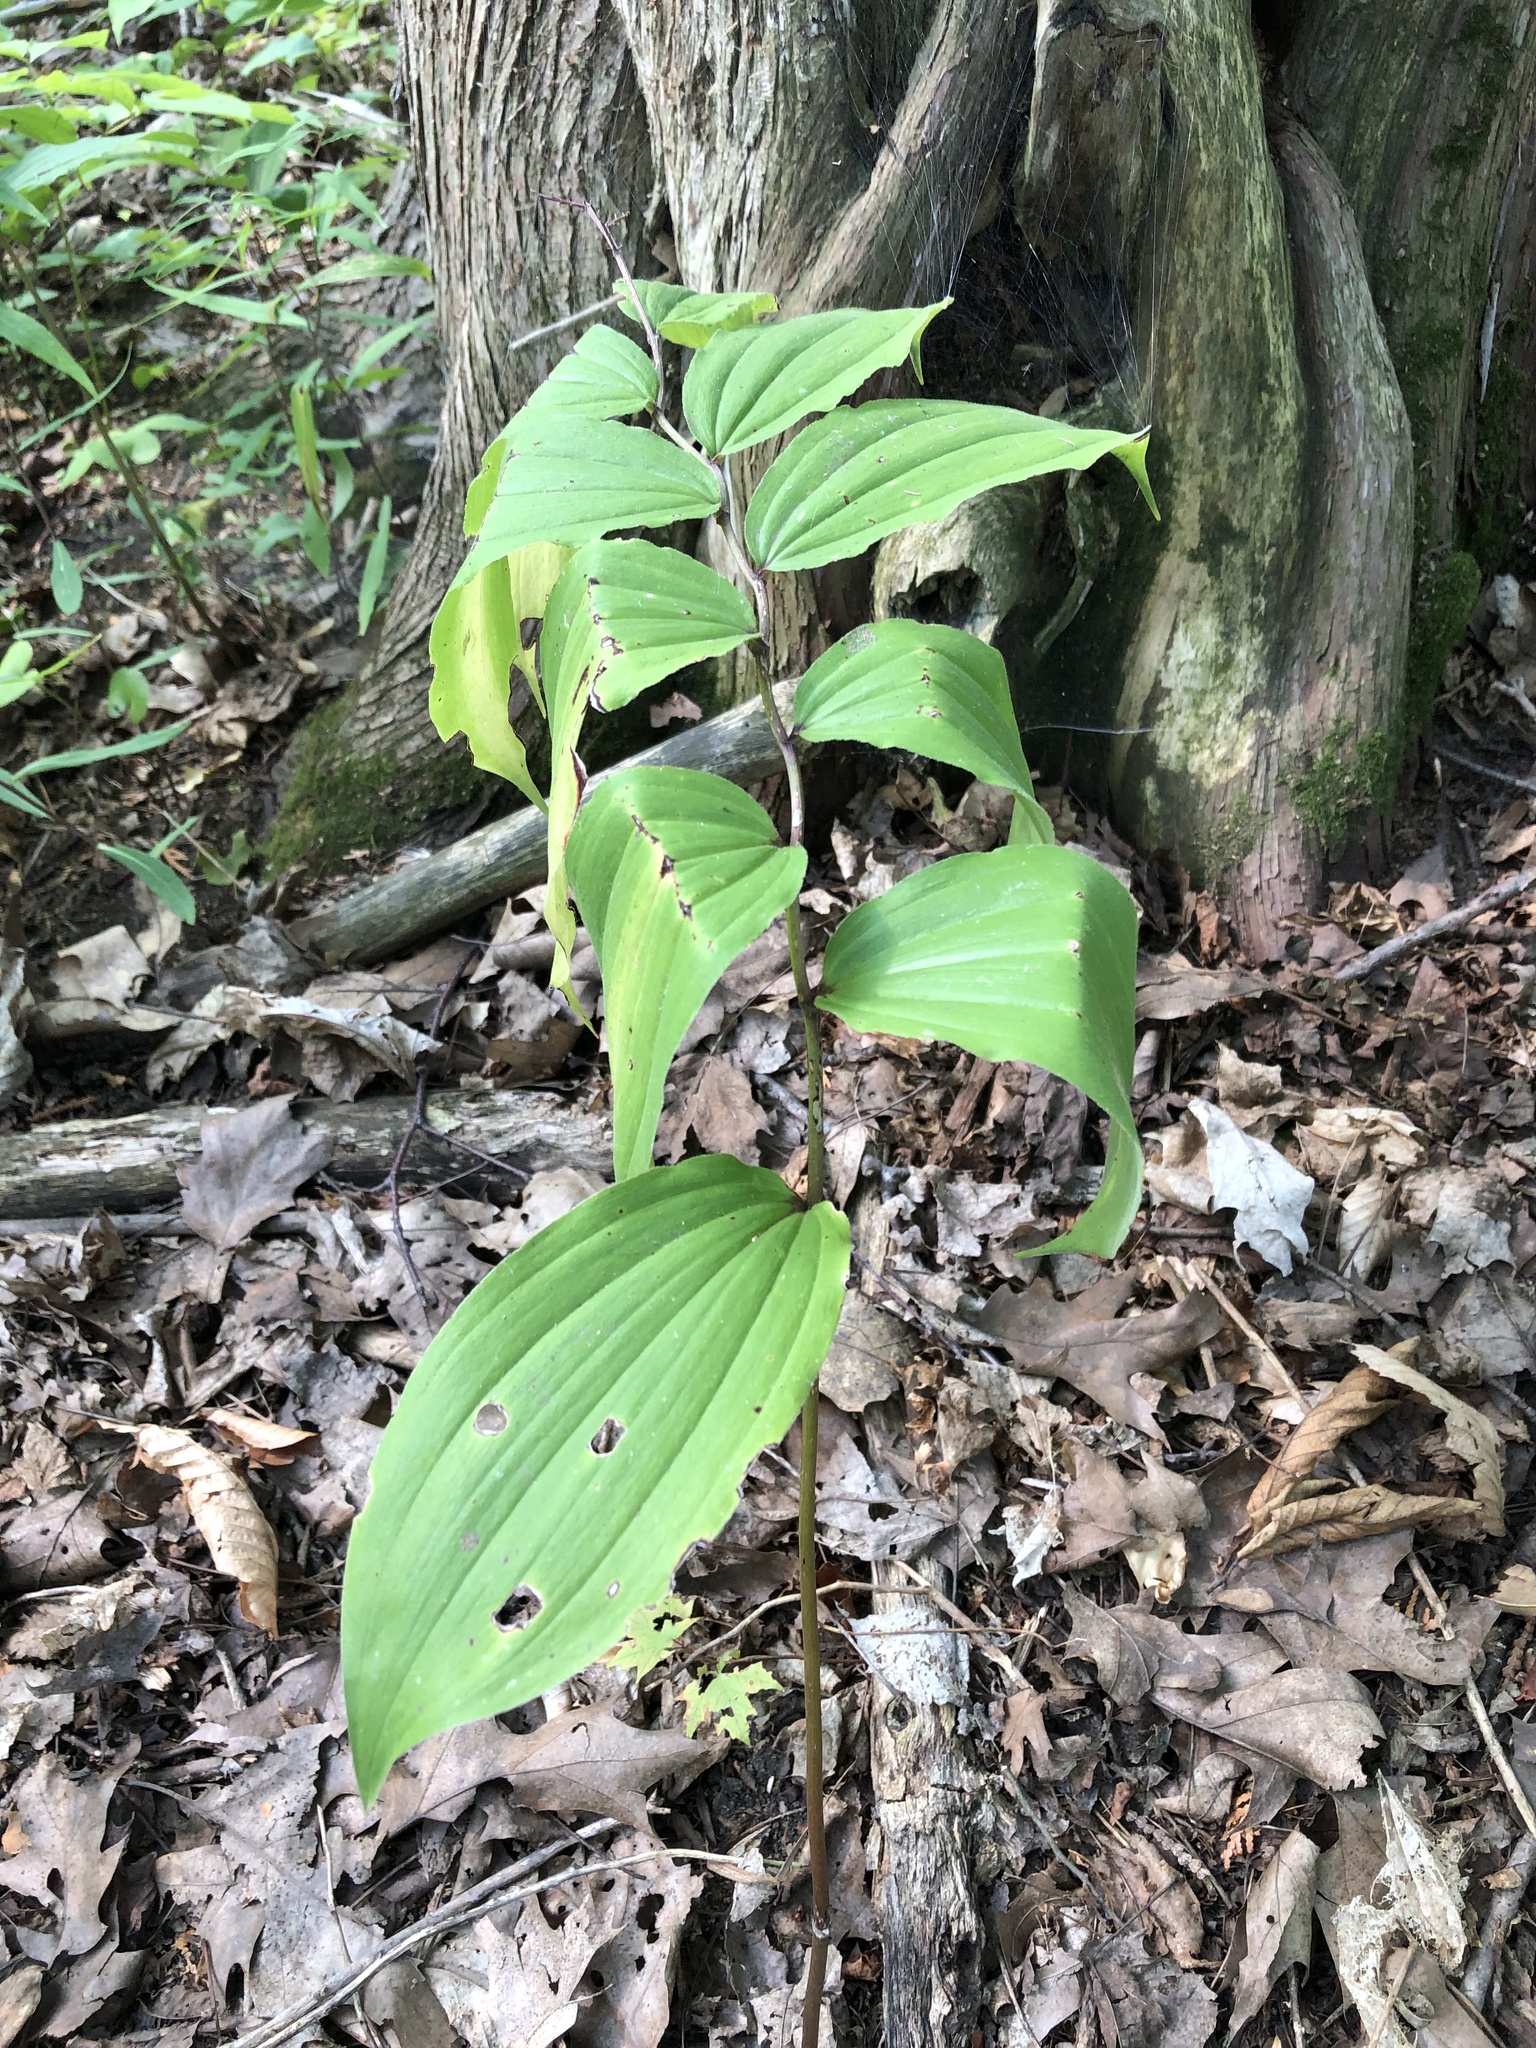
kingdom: Plantae
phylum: Tracheophyta
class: Liliopsida
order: Asparagales
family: Asparagaceae
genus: Maianthemum
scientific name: Maianthemum racemosum
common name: False spikenard
